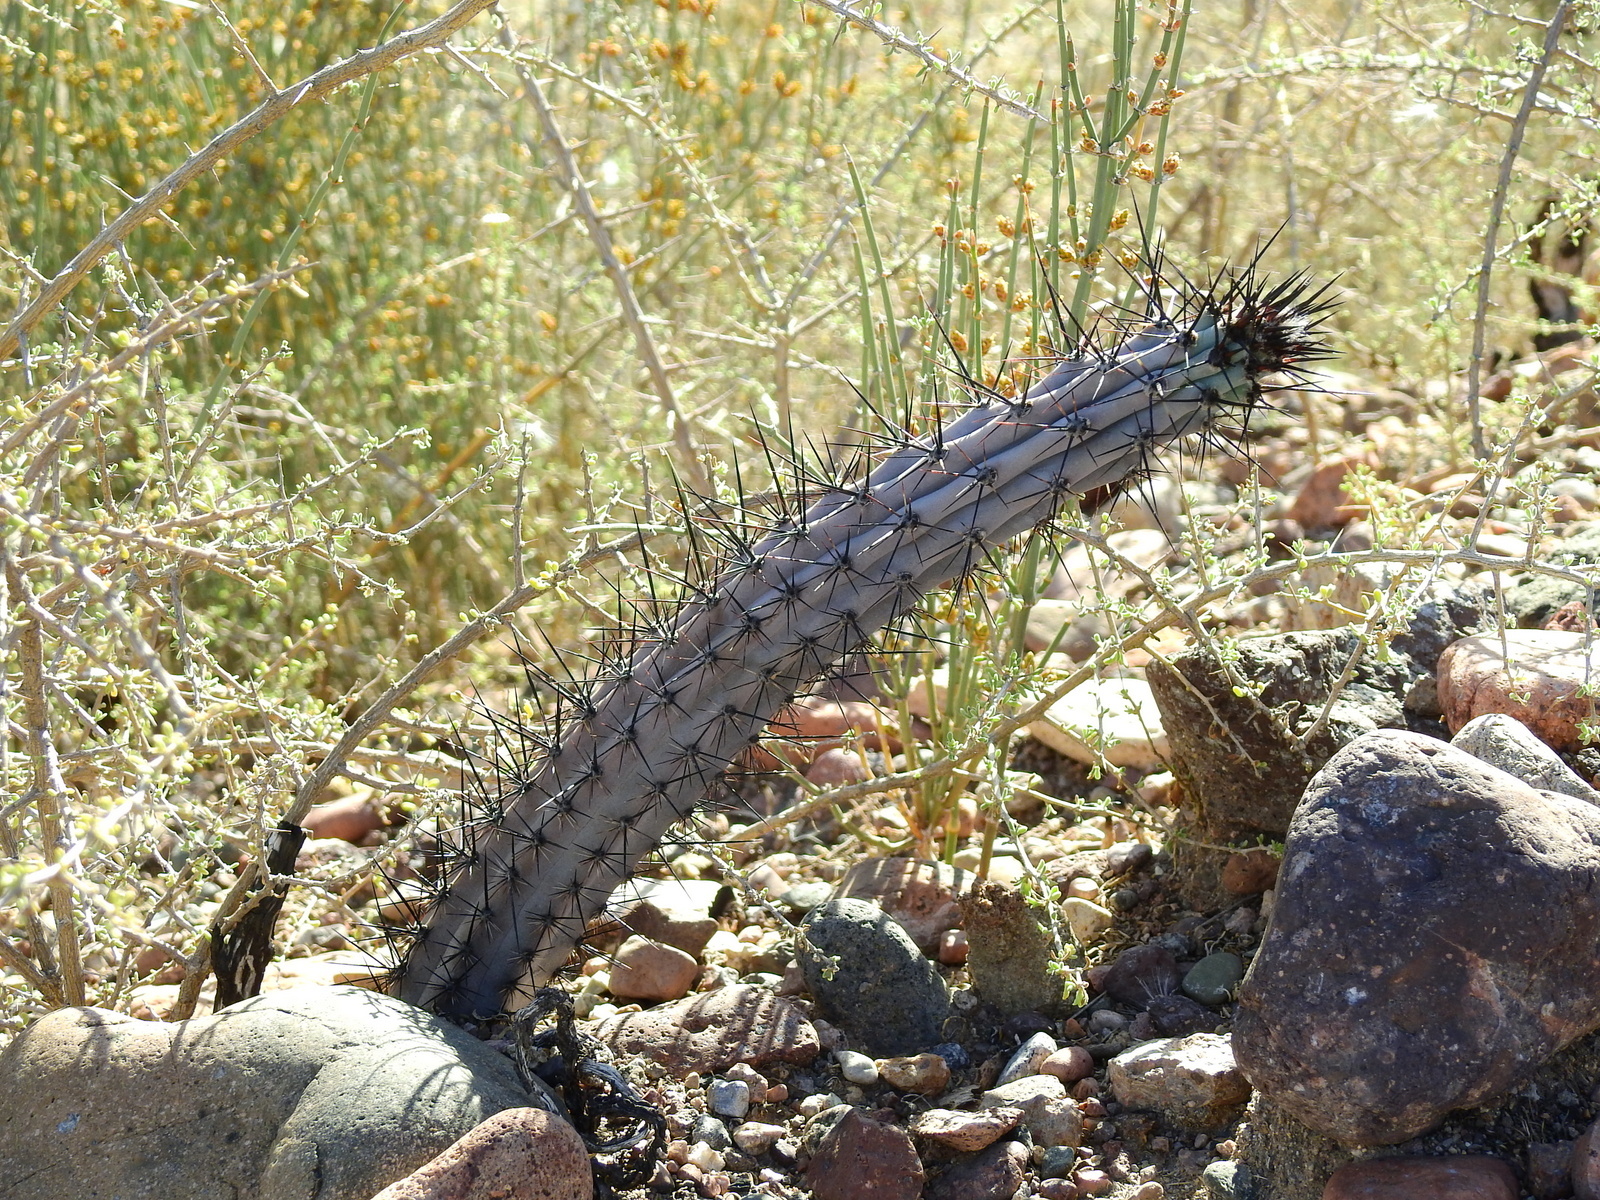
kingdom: Plantae
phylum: Tracheophyta
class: Magnoliopsida
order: Caryophyllales
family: Cactaceae
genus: Cereus
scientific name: Cereus aethiops
